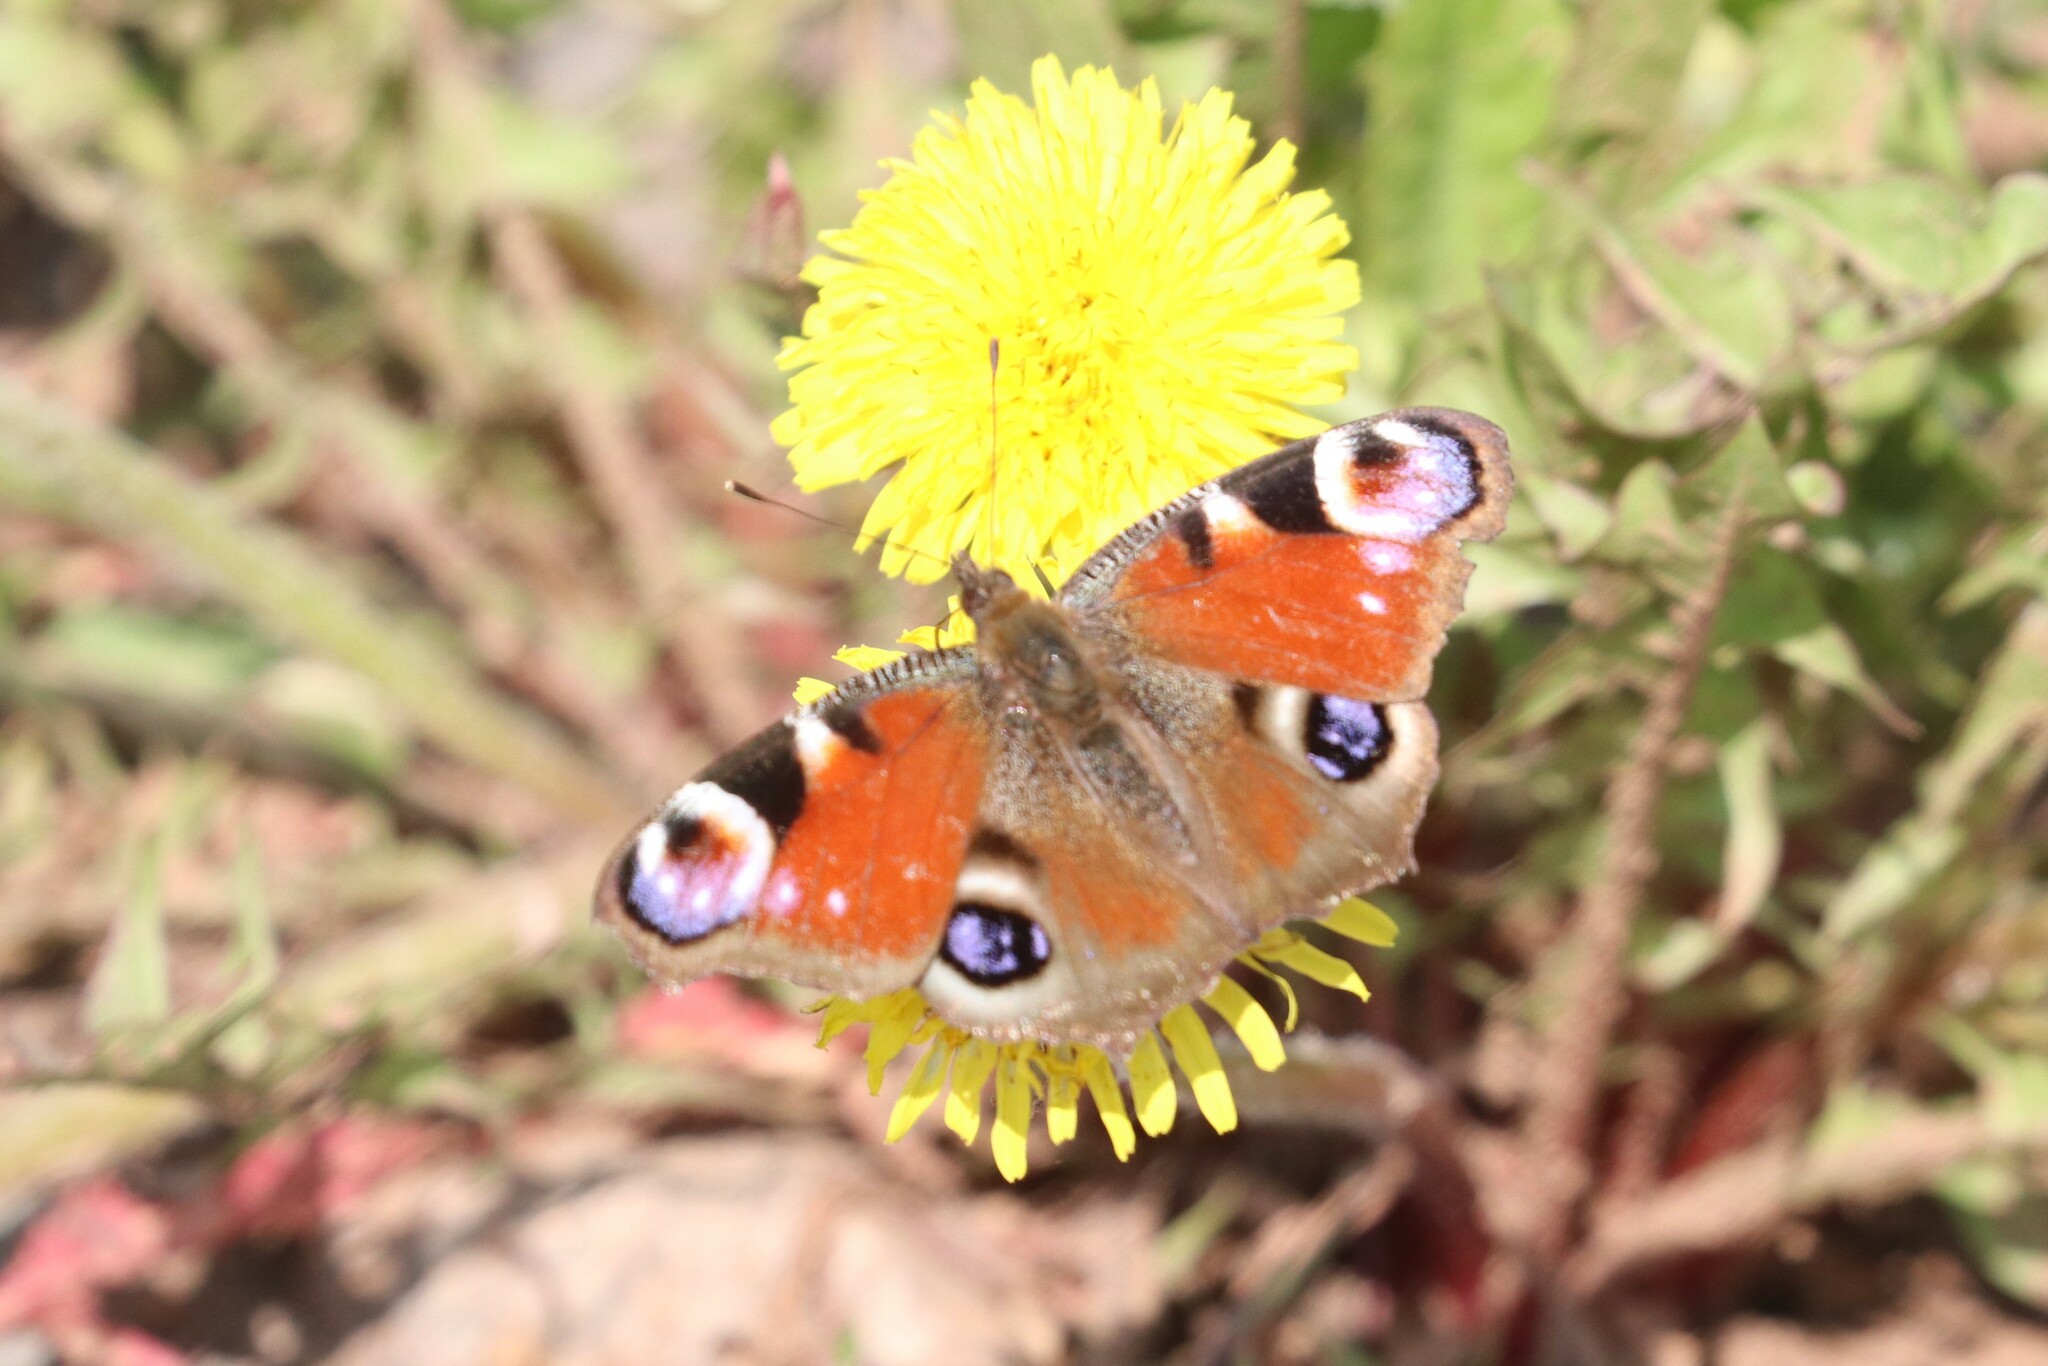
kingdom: Animalia
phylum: Arthropoda
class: Insecta
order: Lepidoptera
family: Nymphalidae
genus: Aglais
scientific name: Aglais io
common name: Peacock
